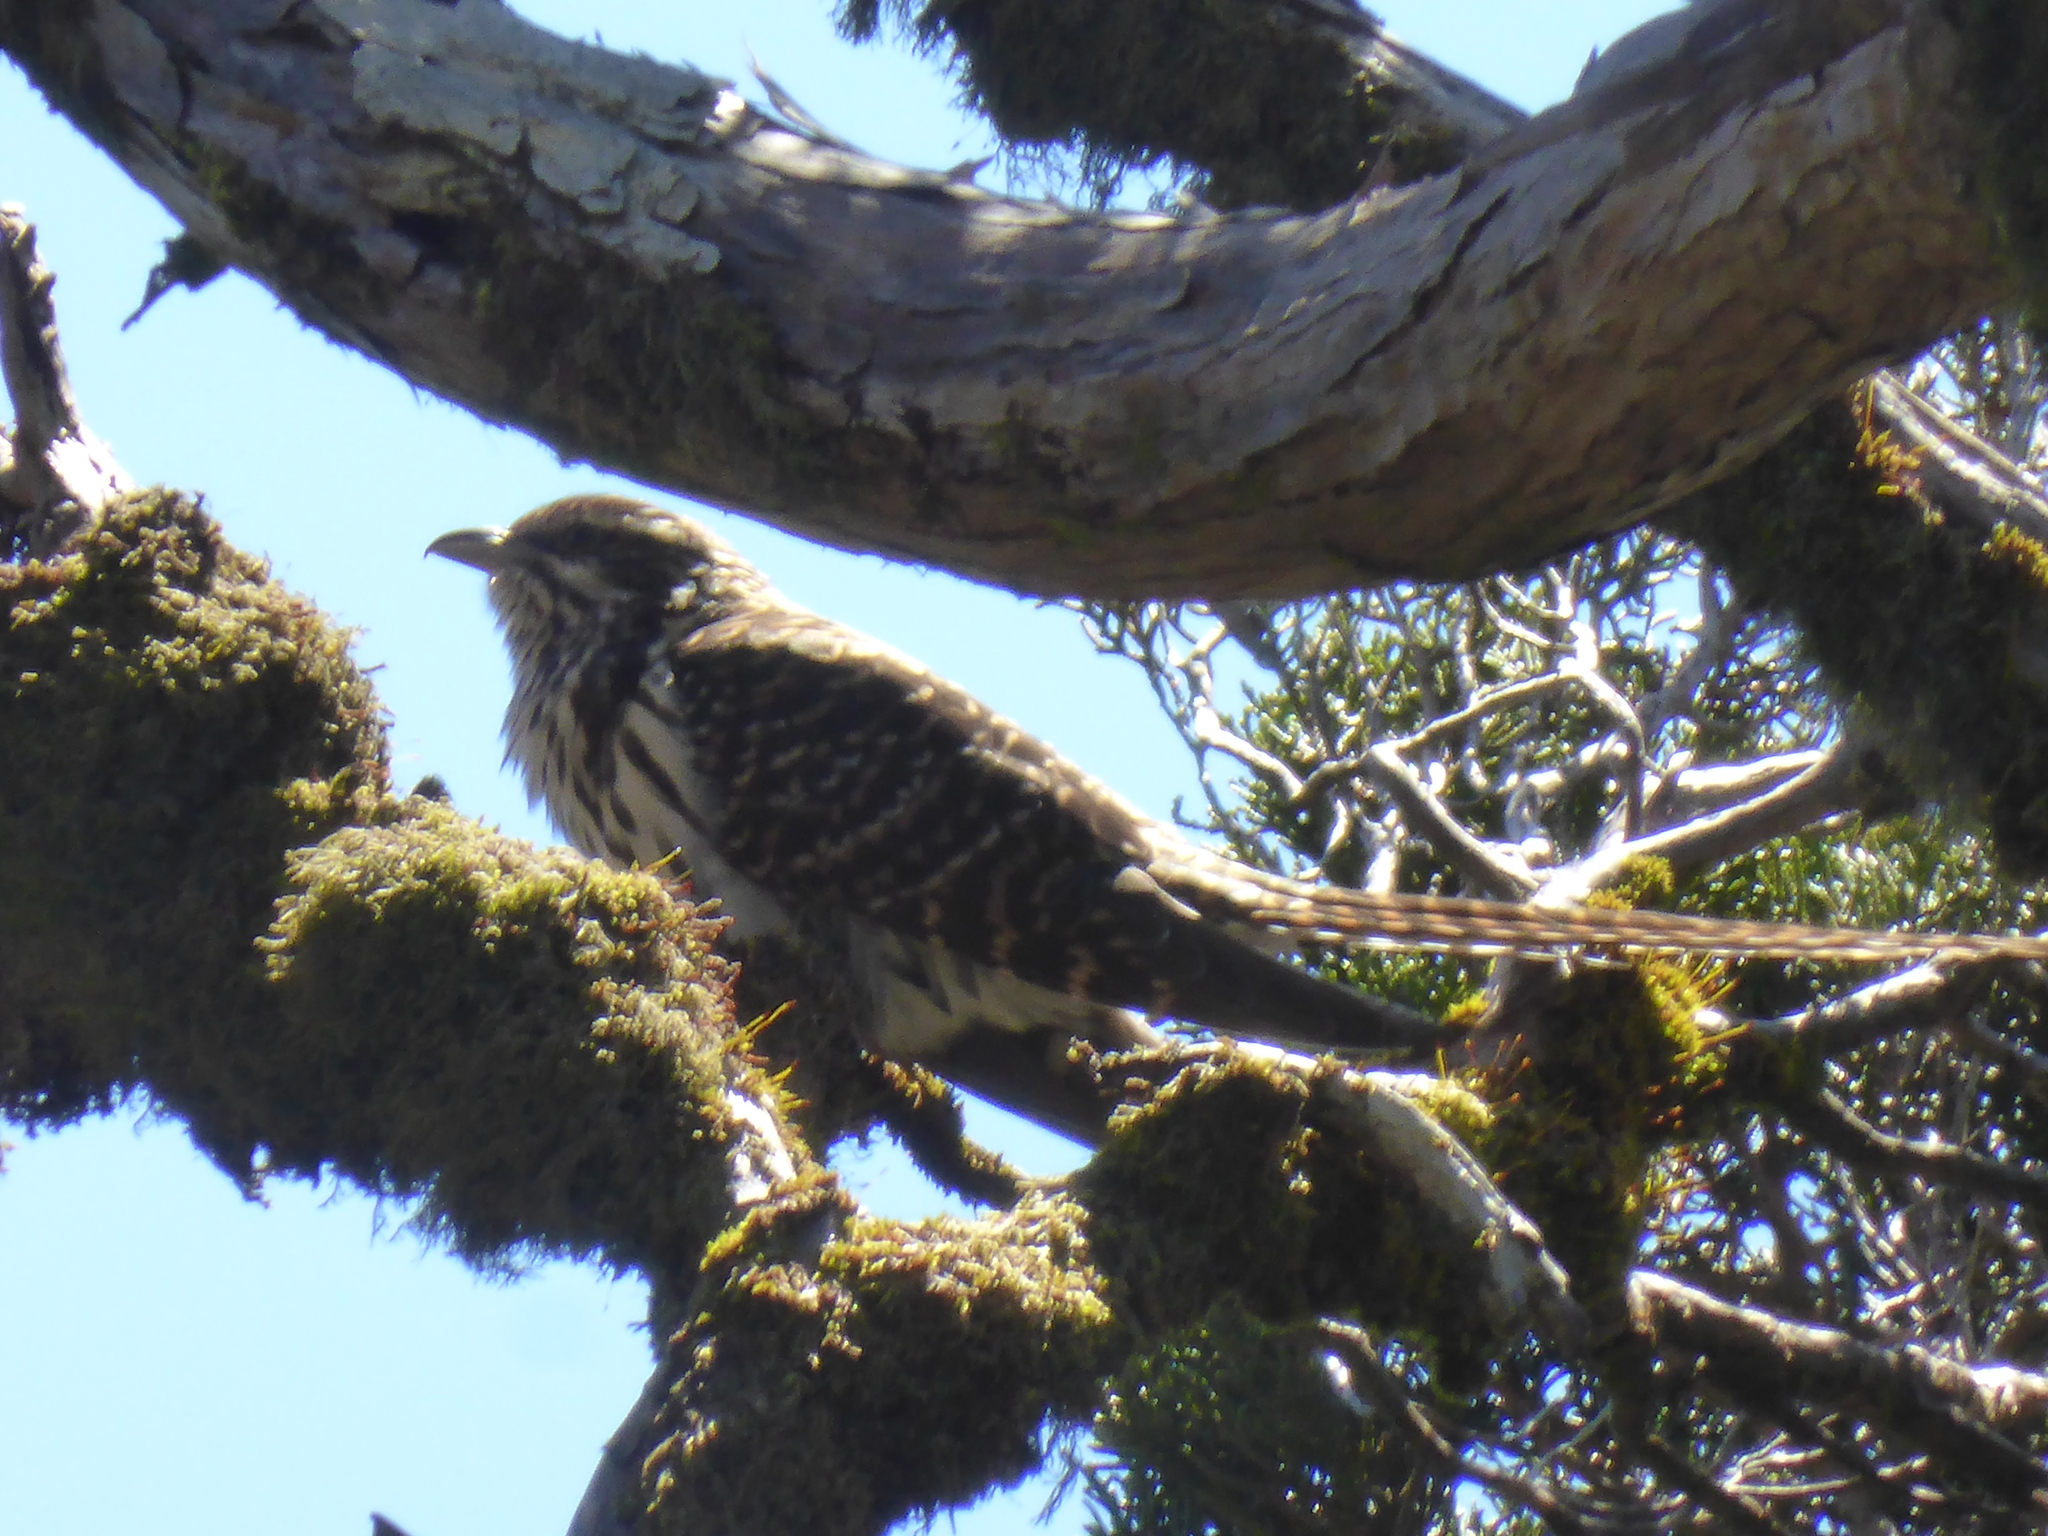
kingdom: Animalia
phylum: Chordata
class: Aves
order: Cuculiformes
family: Cuculidae
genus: Urodynamis
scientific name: Urodynamis taitensis
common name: Long-tailed koel
